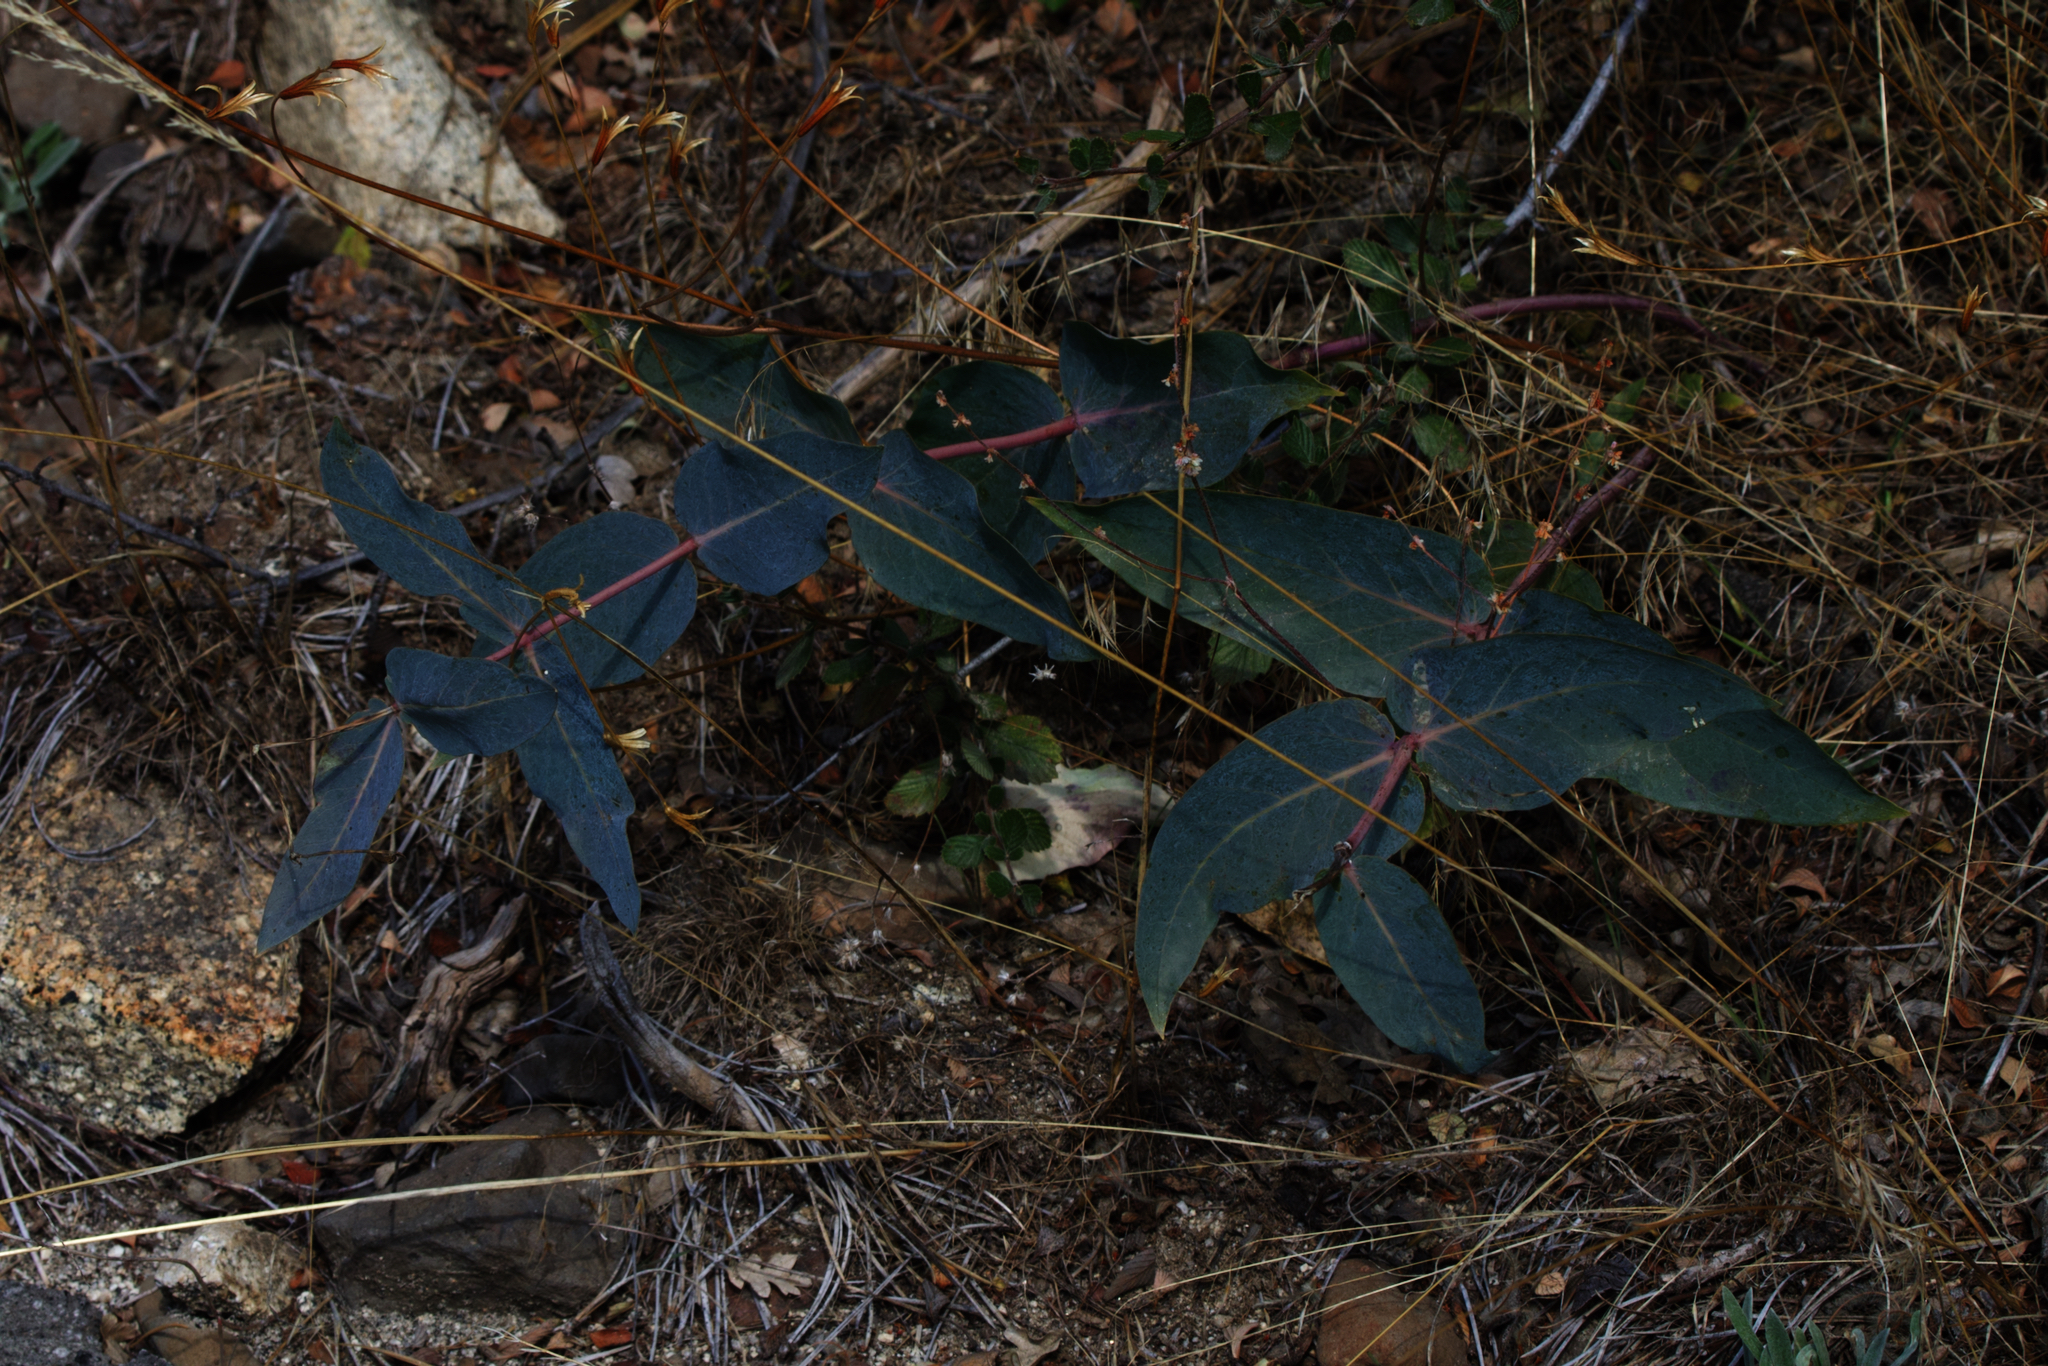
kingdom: Plantae
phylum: Tracheophyta
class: Magnoliopsida
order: Gentianales
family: Apocynaceae
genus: Asclepias
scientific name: Asclepias cordifolia
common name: Purple milkweed
